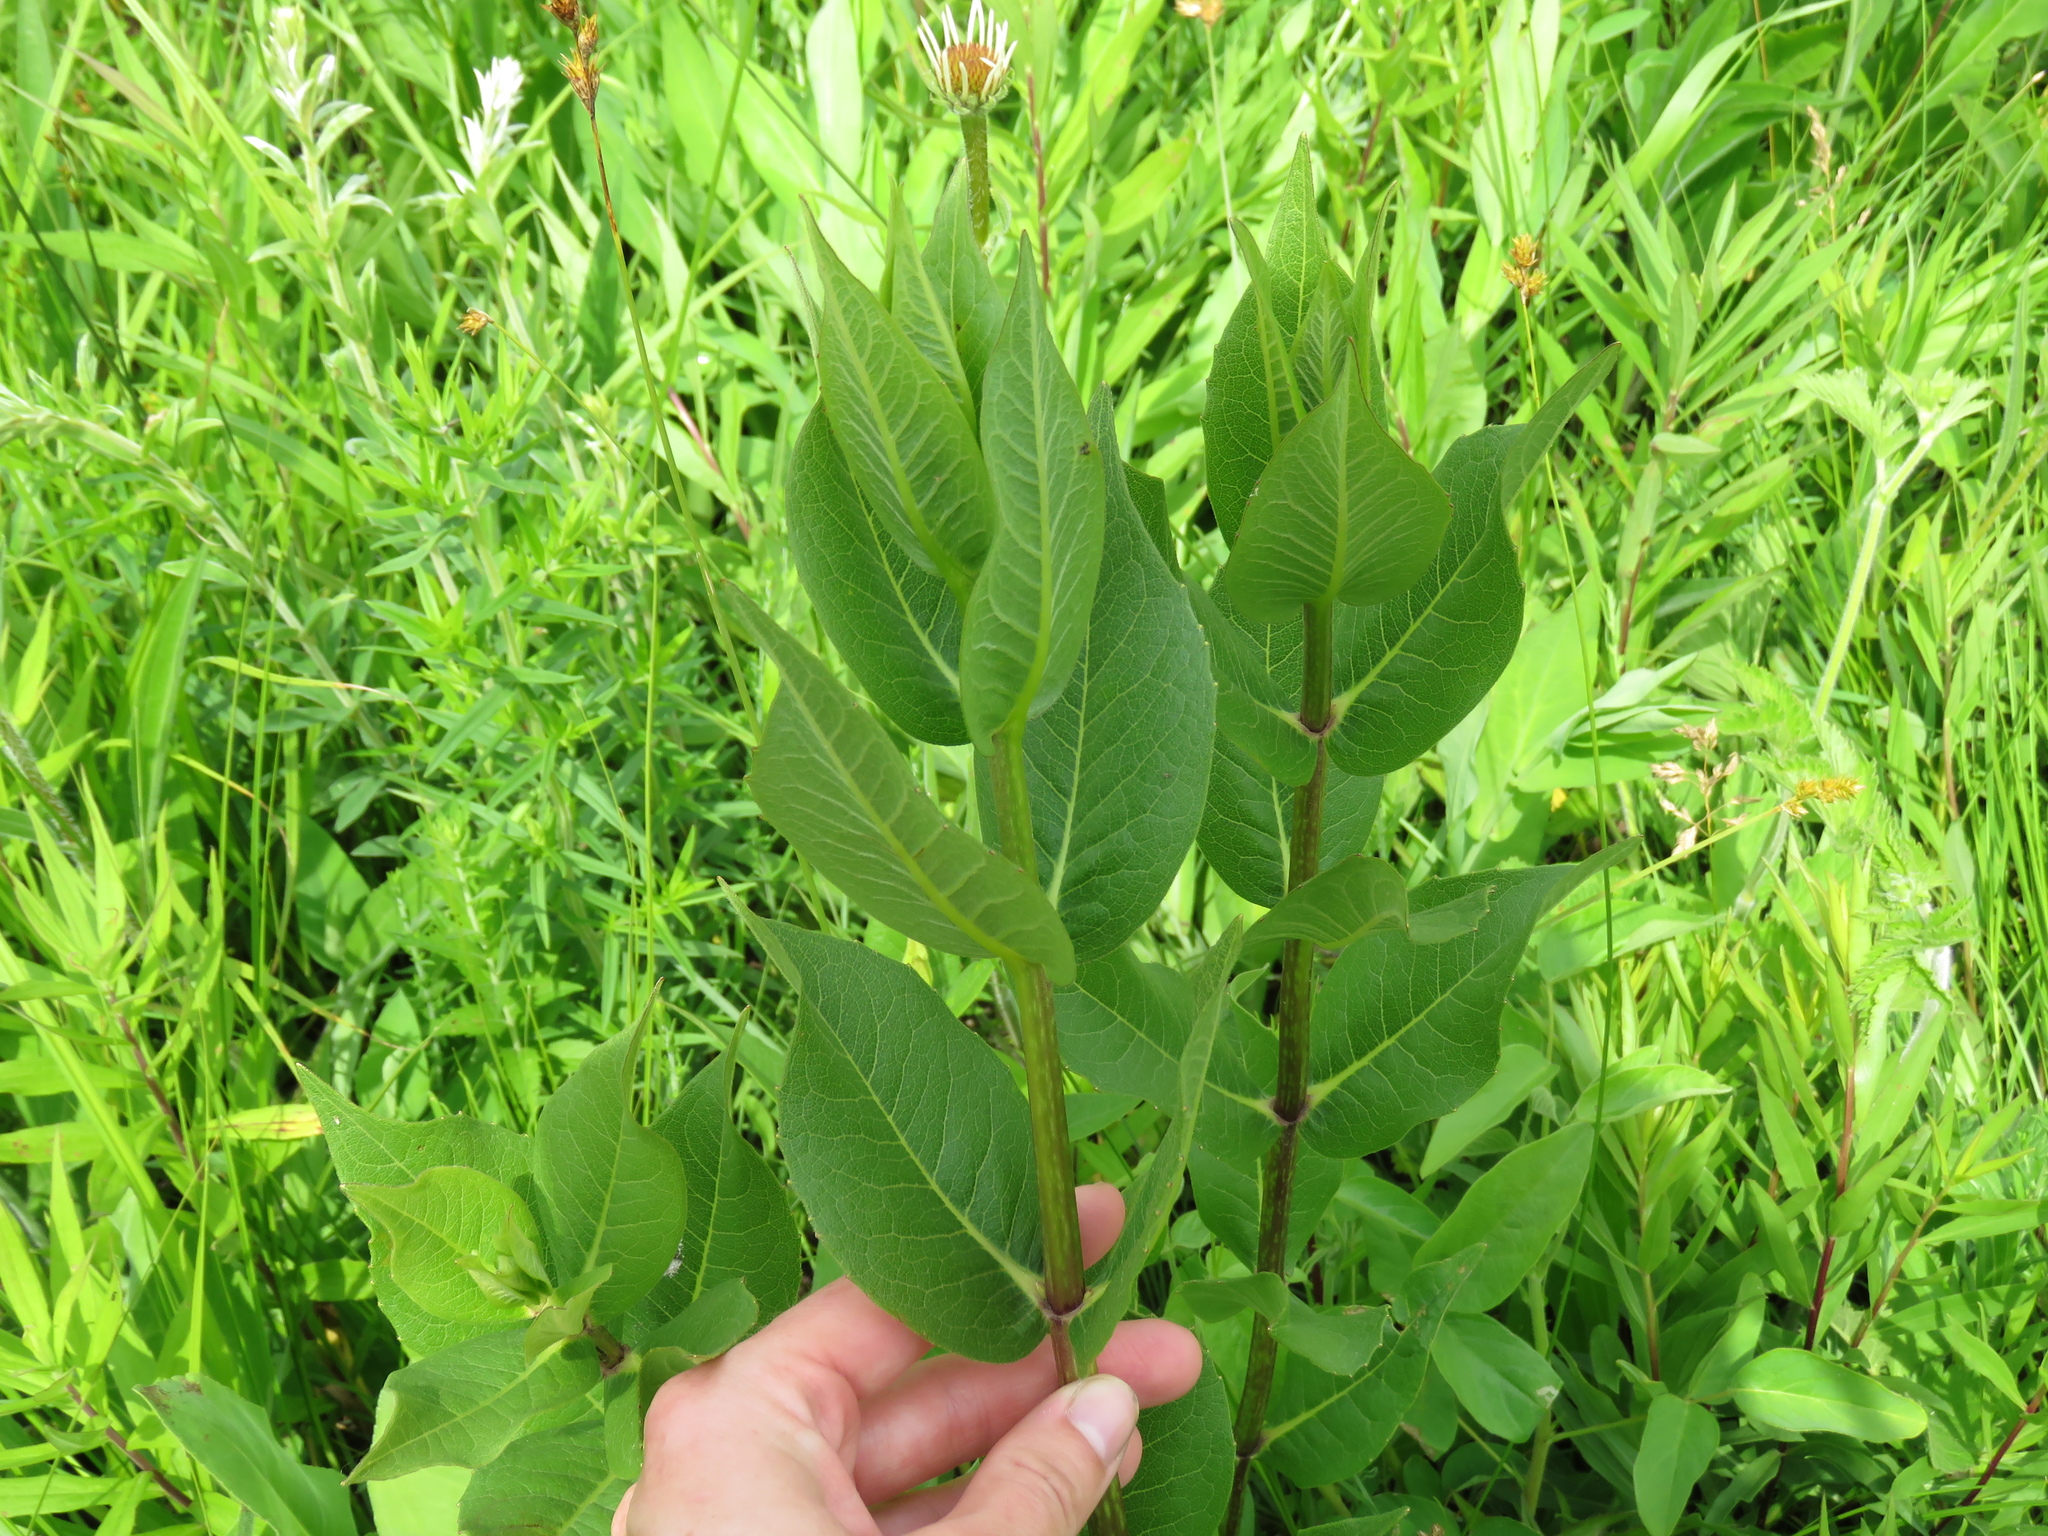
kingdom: Plantae
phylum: Tracheophyta
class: Magnoliopsida
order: Asterales
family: Asteraceae
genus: Silphium
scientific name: Silphium integrifolium
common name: Whole-leaf rosinweed
